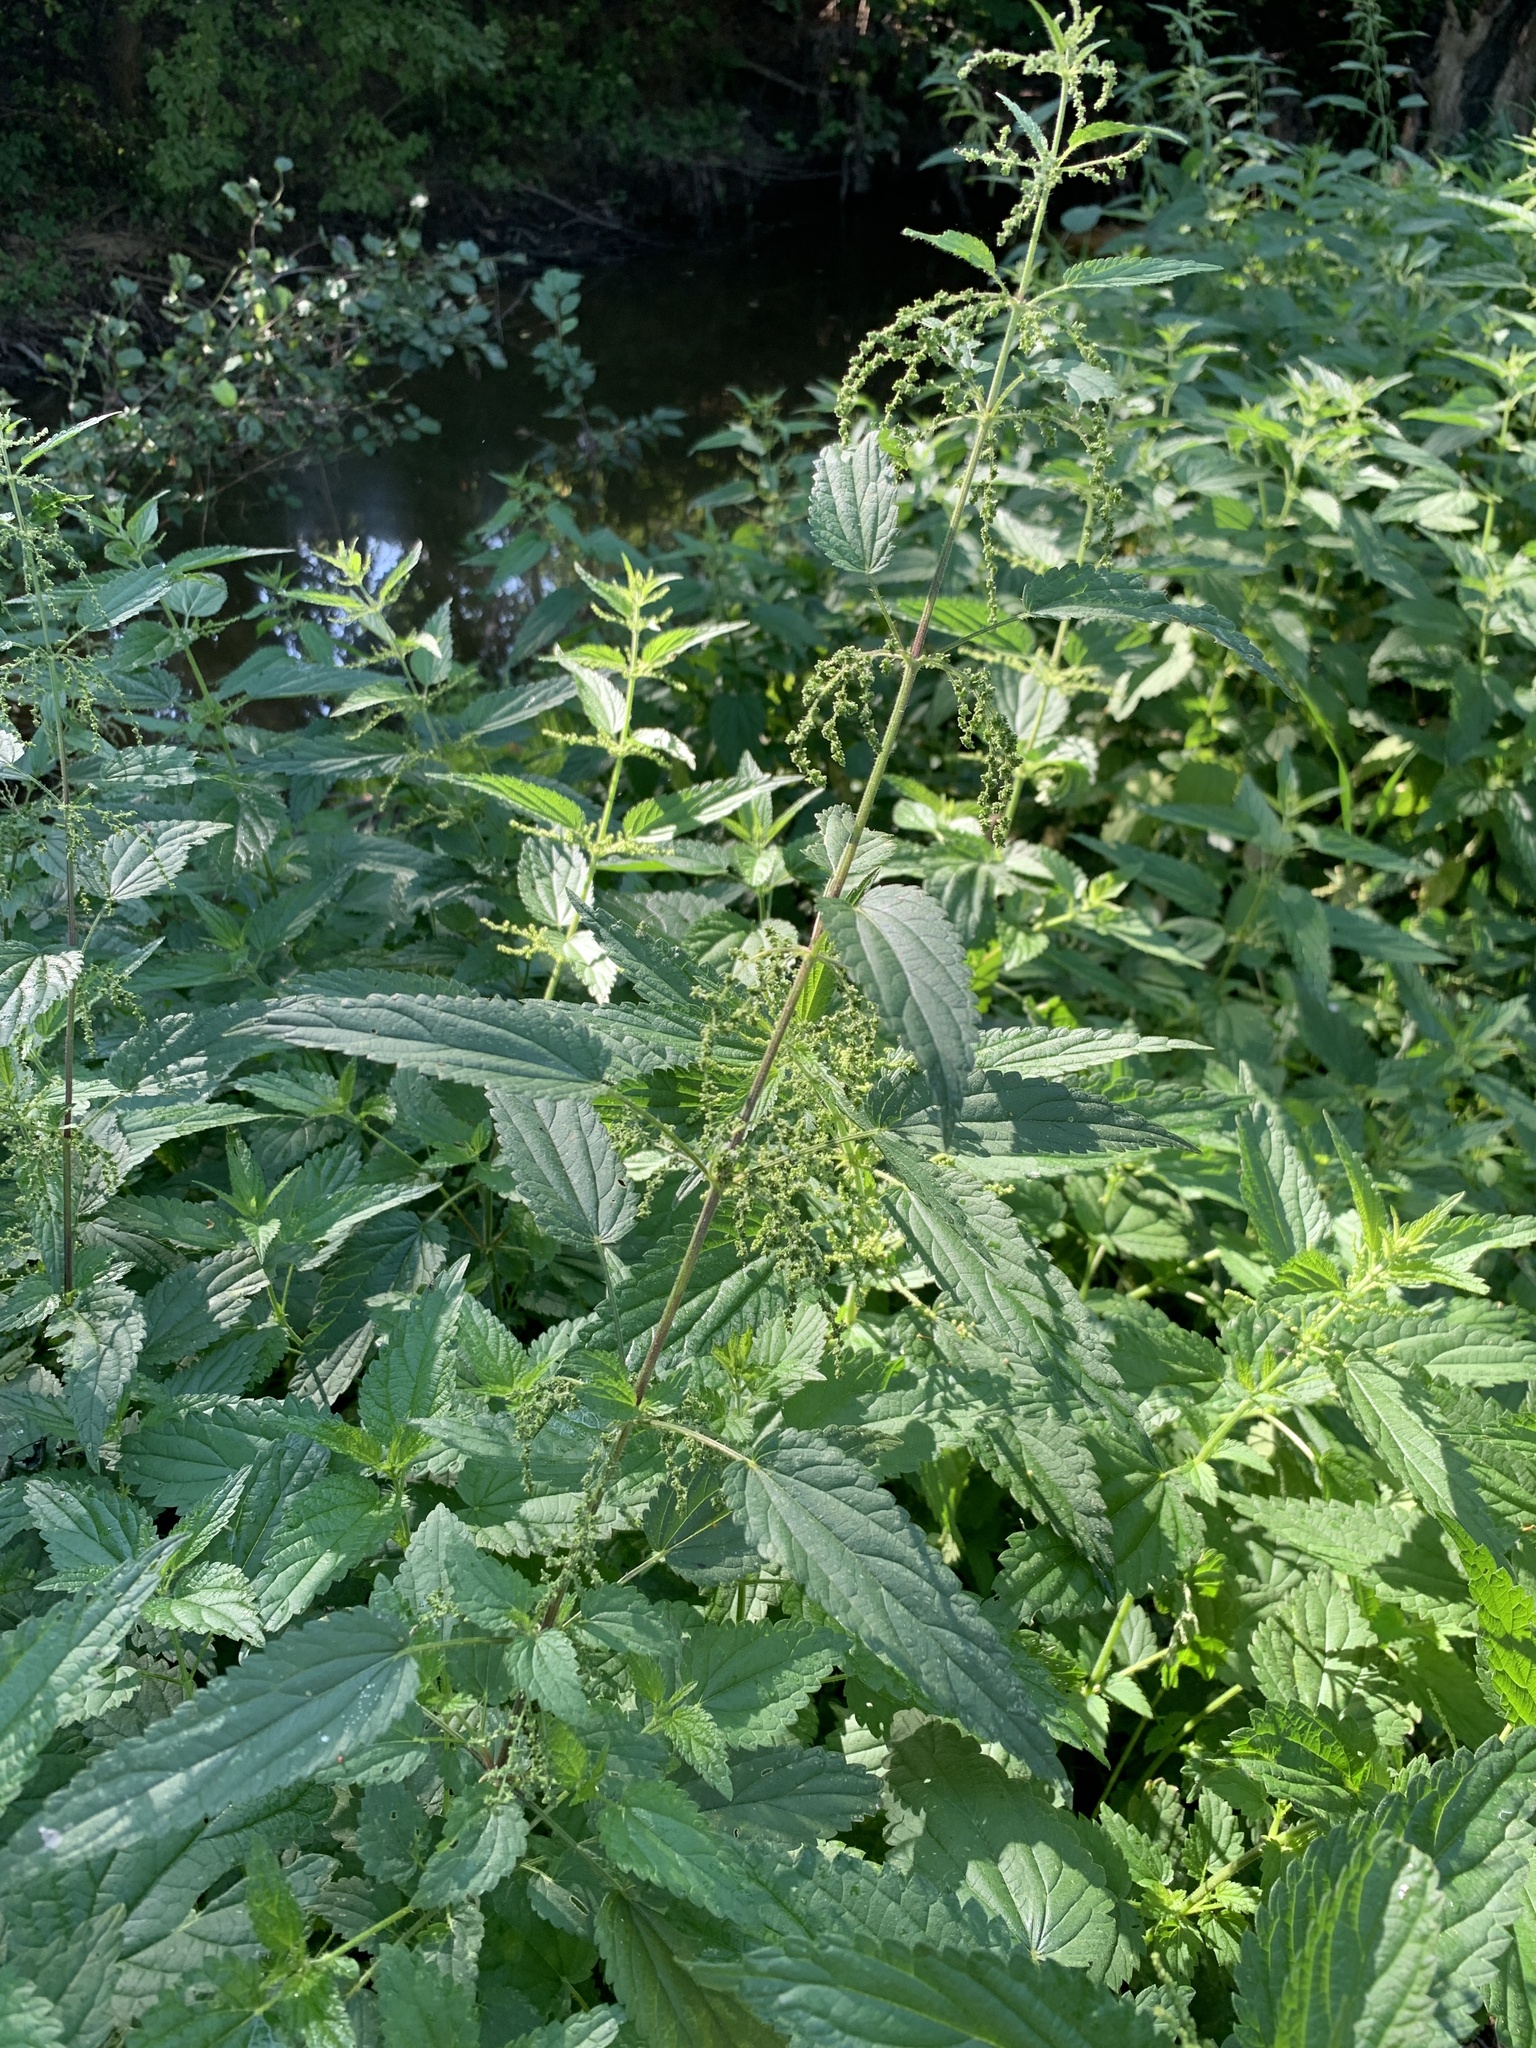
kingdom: Plantae
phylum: Tracheophyta
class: Magnoliopsida
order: Rosales
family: Urticaceae
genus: Urtica
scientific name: Urtica dioica
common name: Common nettle
